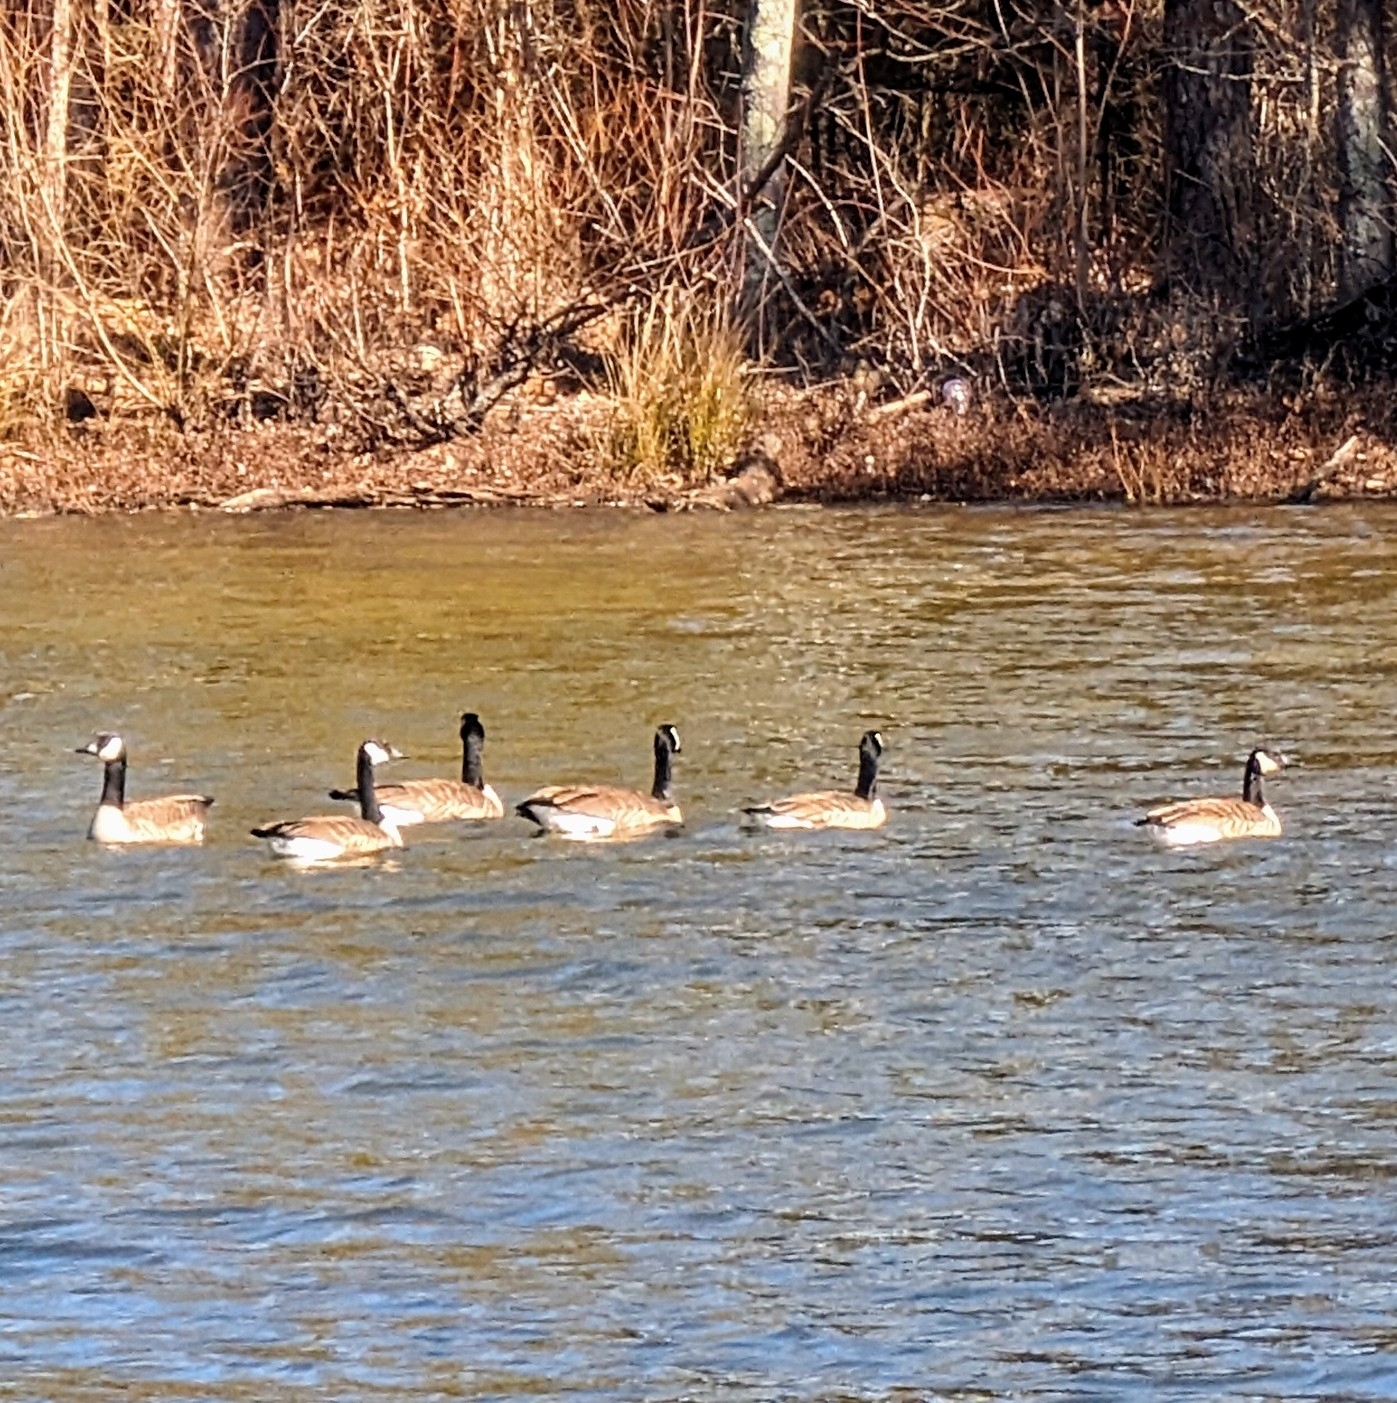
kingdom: Animalia
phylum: Chordata
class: Aves
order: Anseriformes
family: Anatidae
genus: Branta
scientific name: Branta canadensis
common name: Canada goose
